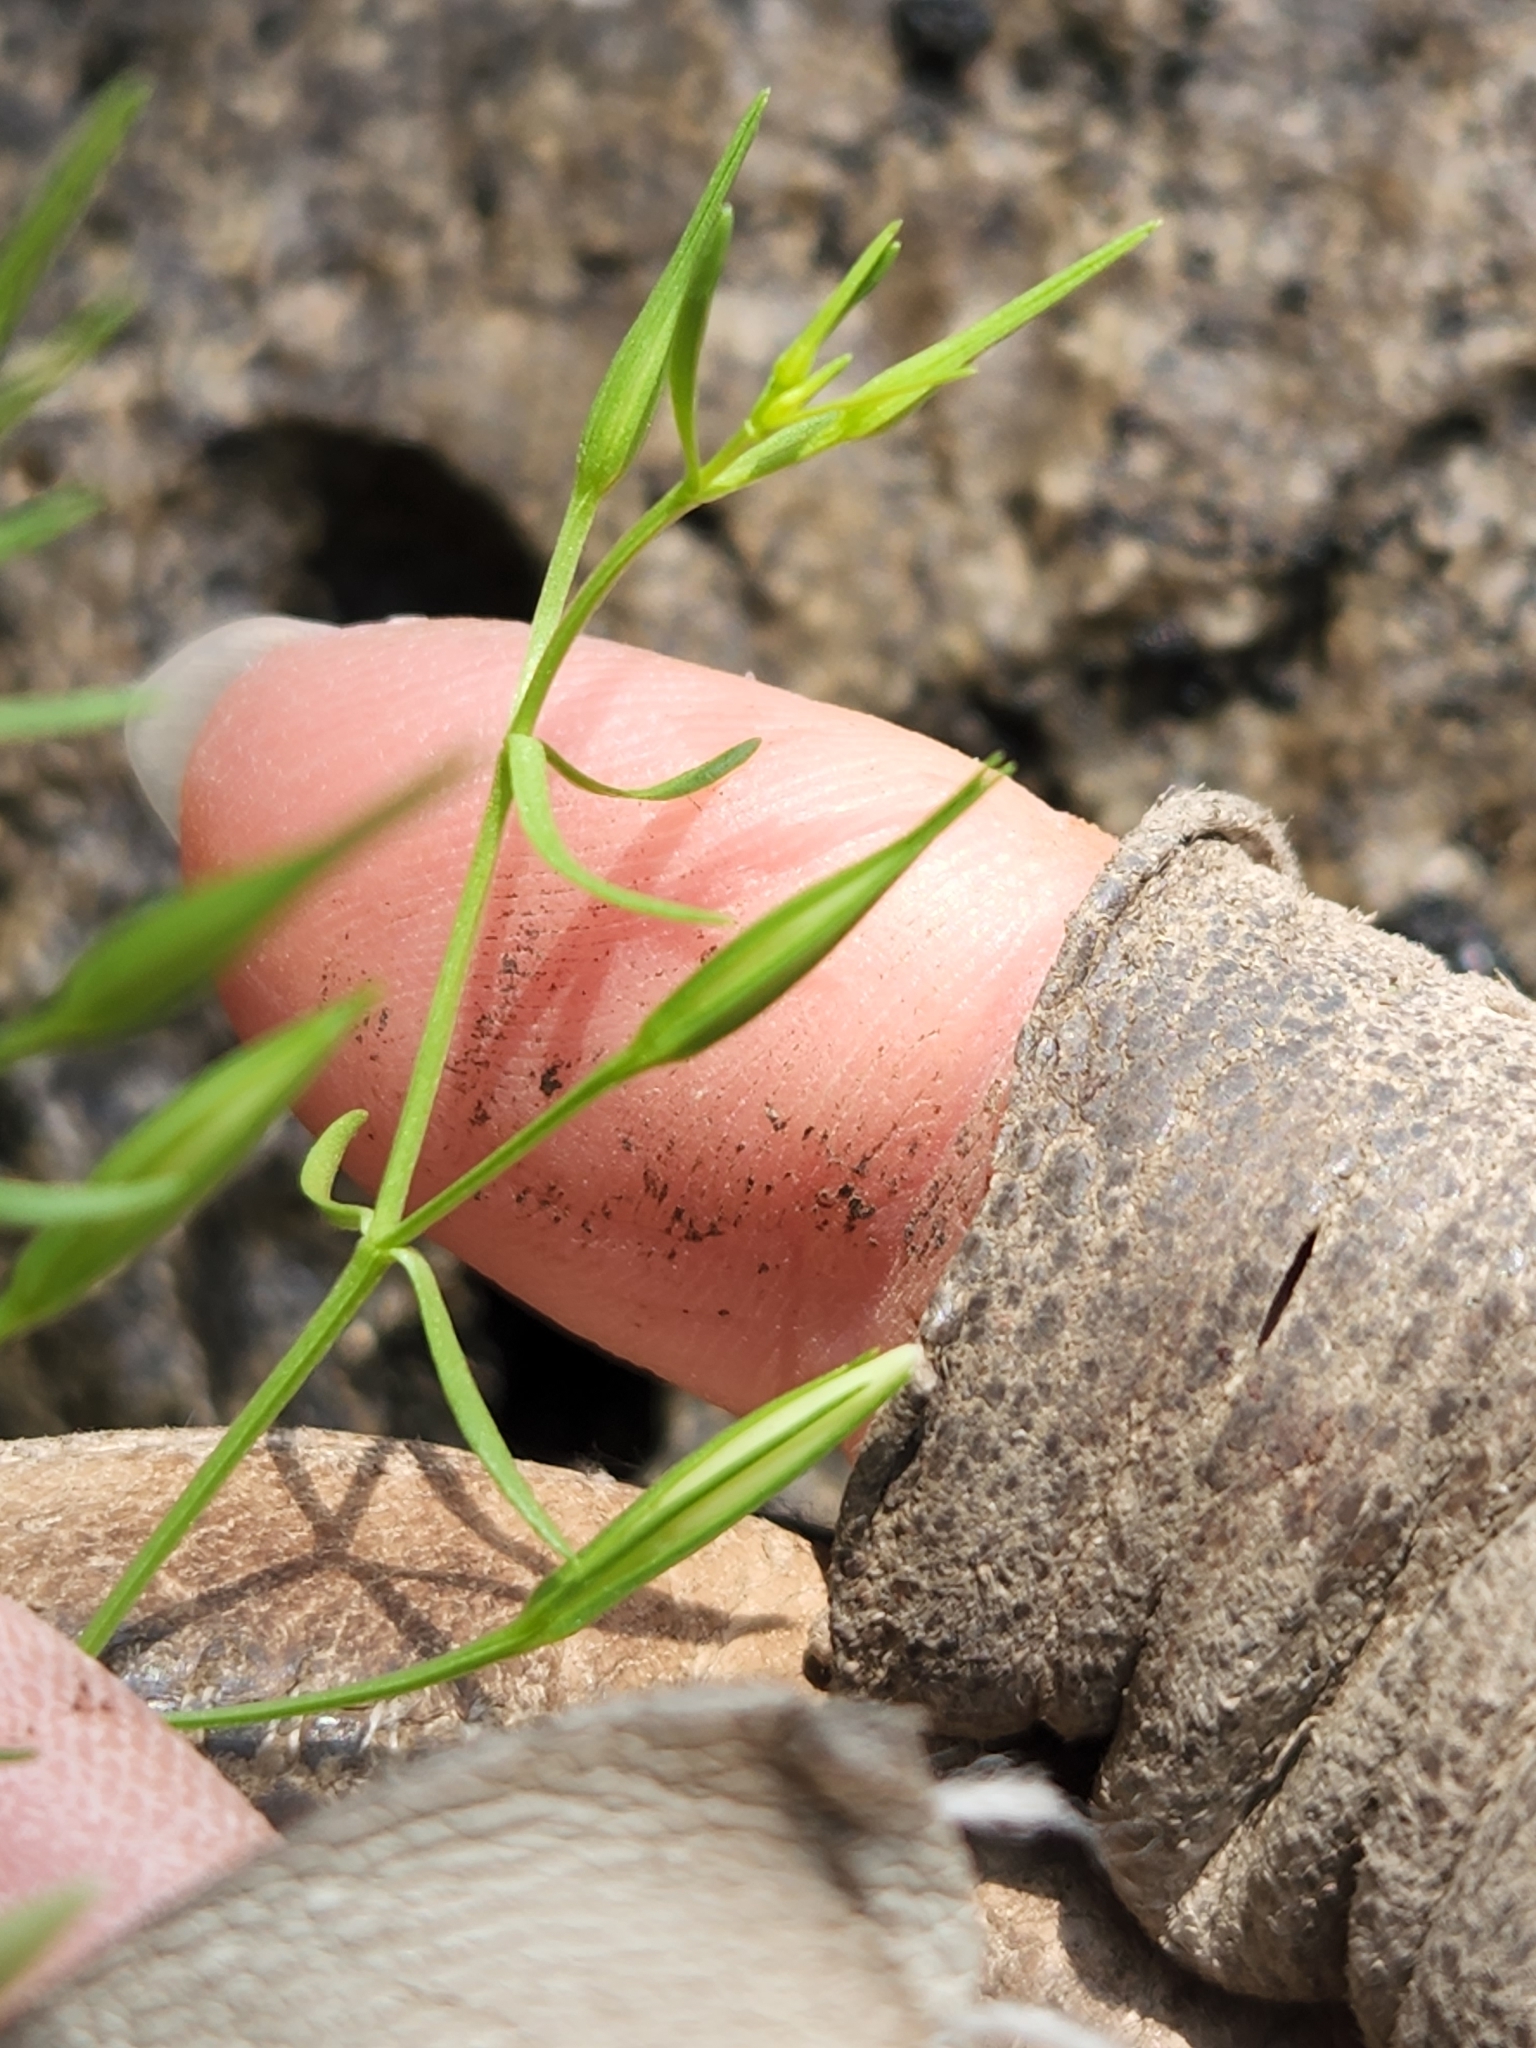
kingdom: Plantae
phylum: Tracheophyta
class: Magnoliopsida
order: Gentianales
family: Gentianaceae
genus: Zeltnera
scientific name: Zeltnera calycosa
